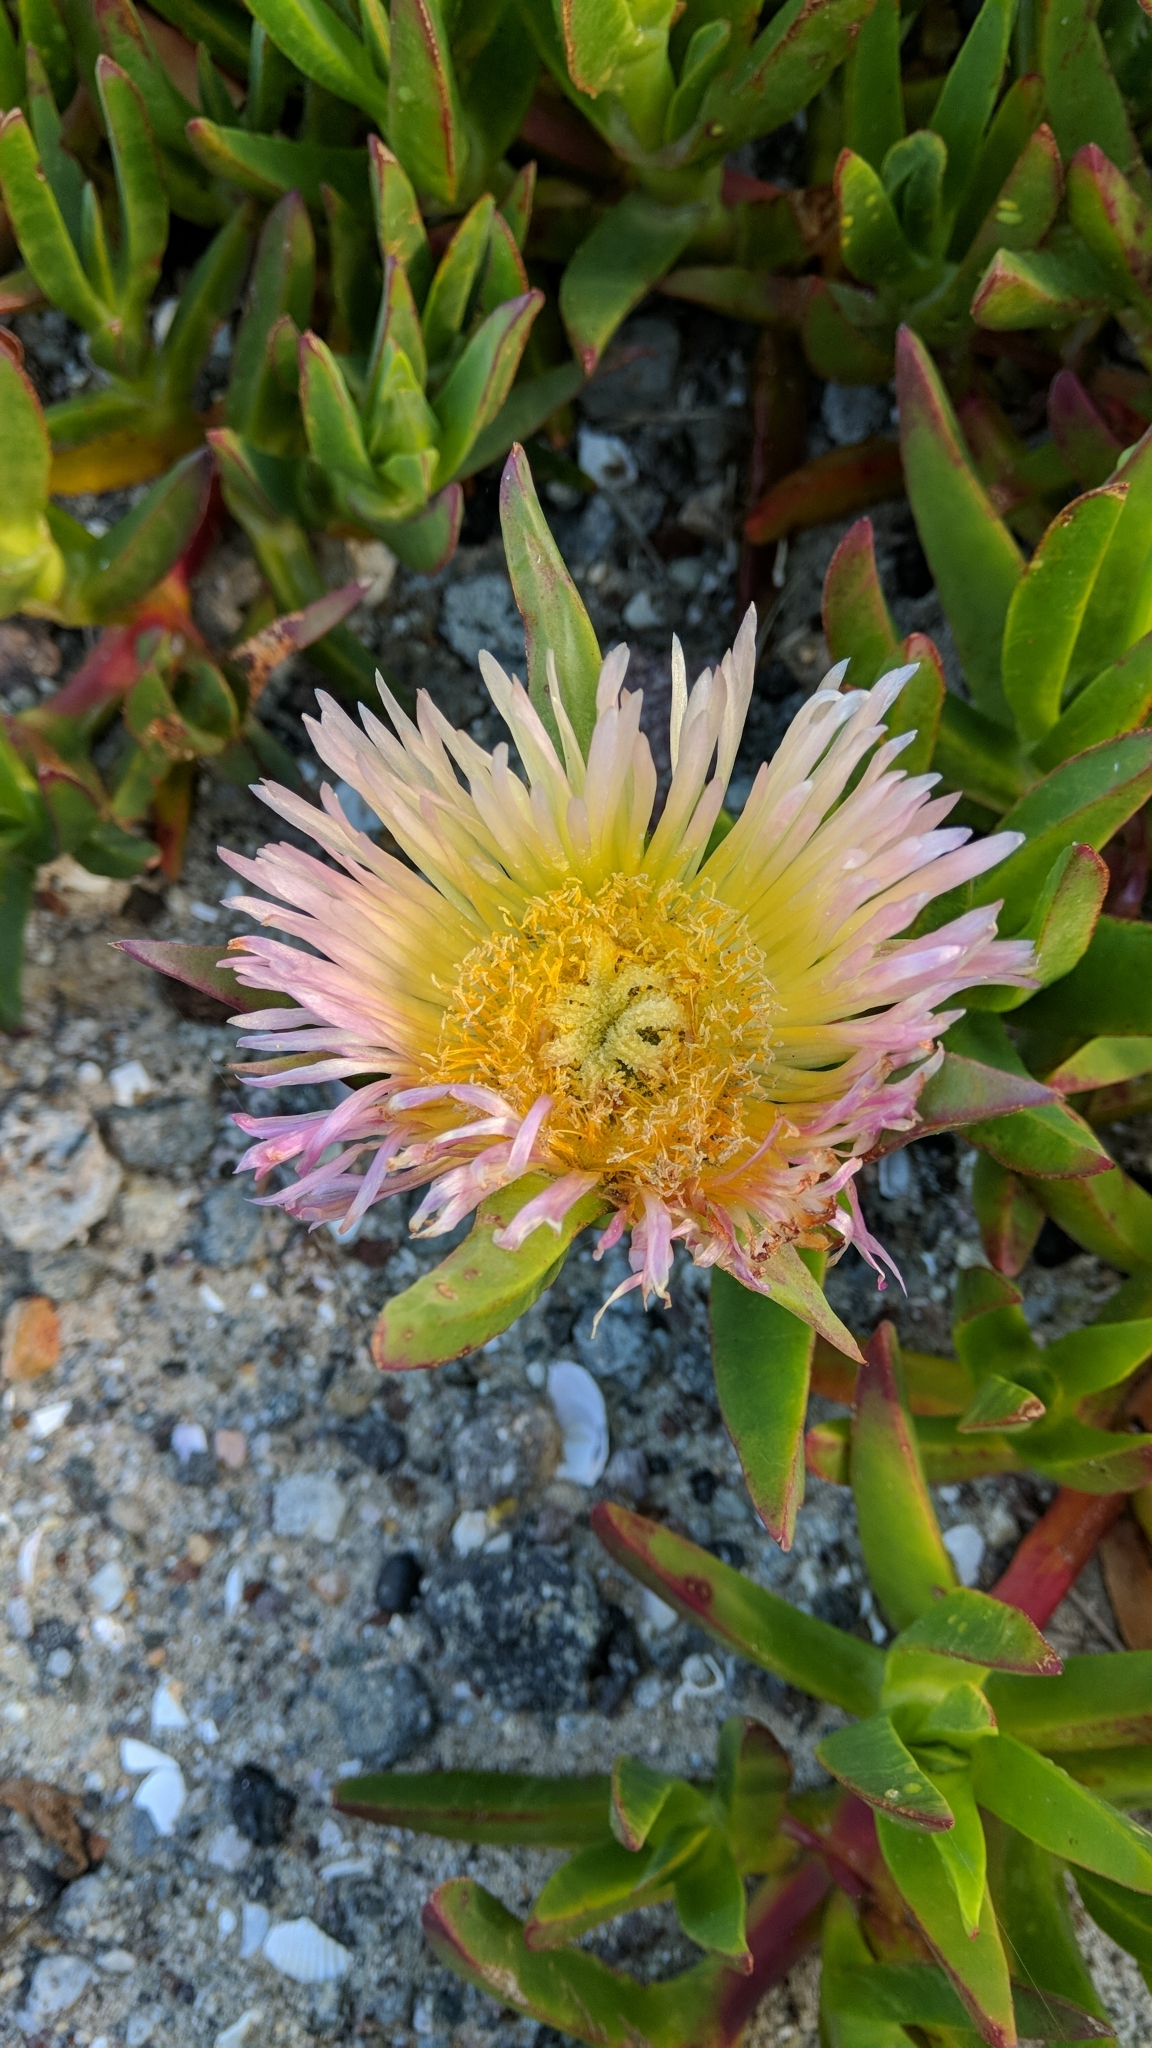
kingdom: Plantae
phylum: Tracheophyta
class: Magnoliopsida
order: Caryophyllales
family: Aizoaceae
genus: Carpobrotus
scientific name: Carpobrotus edulis
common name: Hottentot-fig
